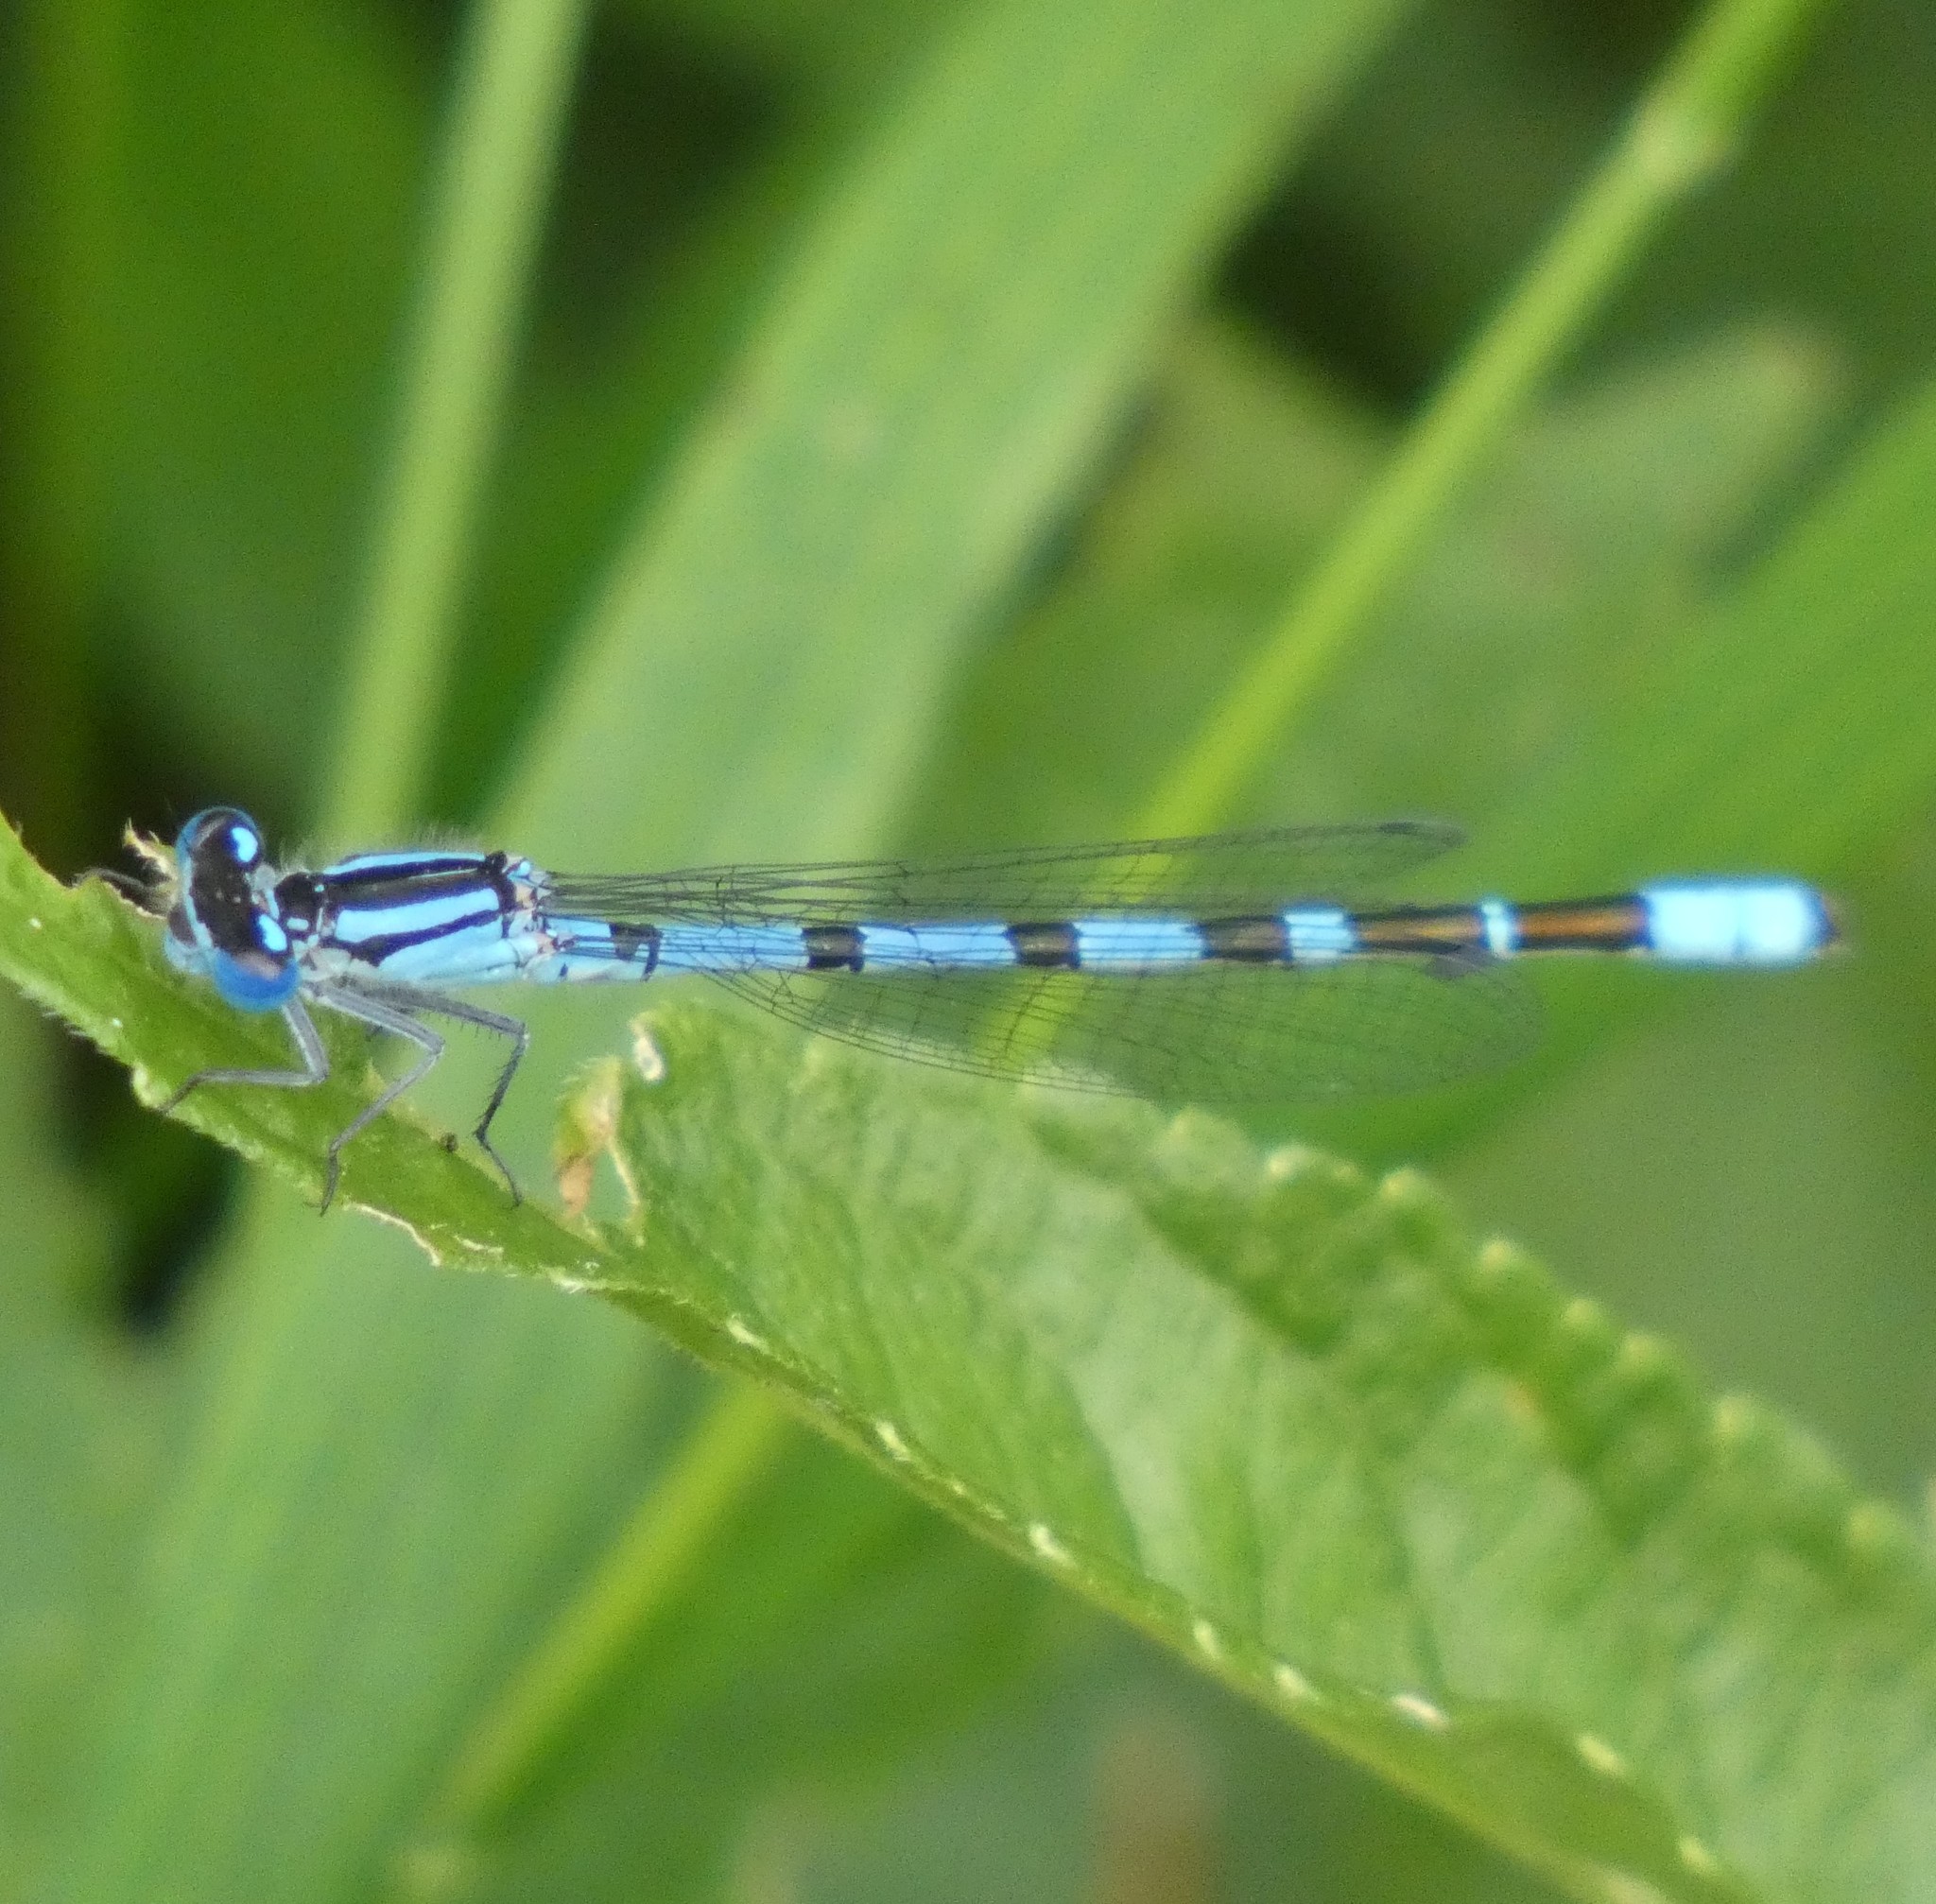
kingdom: Animalia
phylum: Arthropoda
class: Insecta
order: Odonata
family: Coenagrionidae
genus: Enallagma
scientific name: Enallagma cyathigerum
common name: Common blue damselfly
